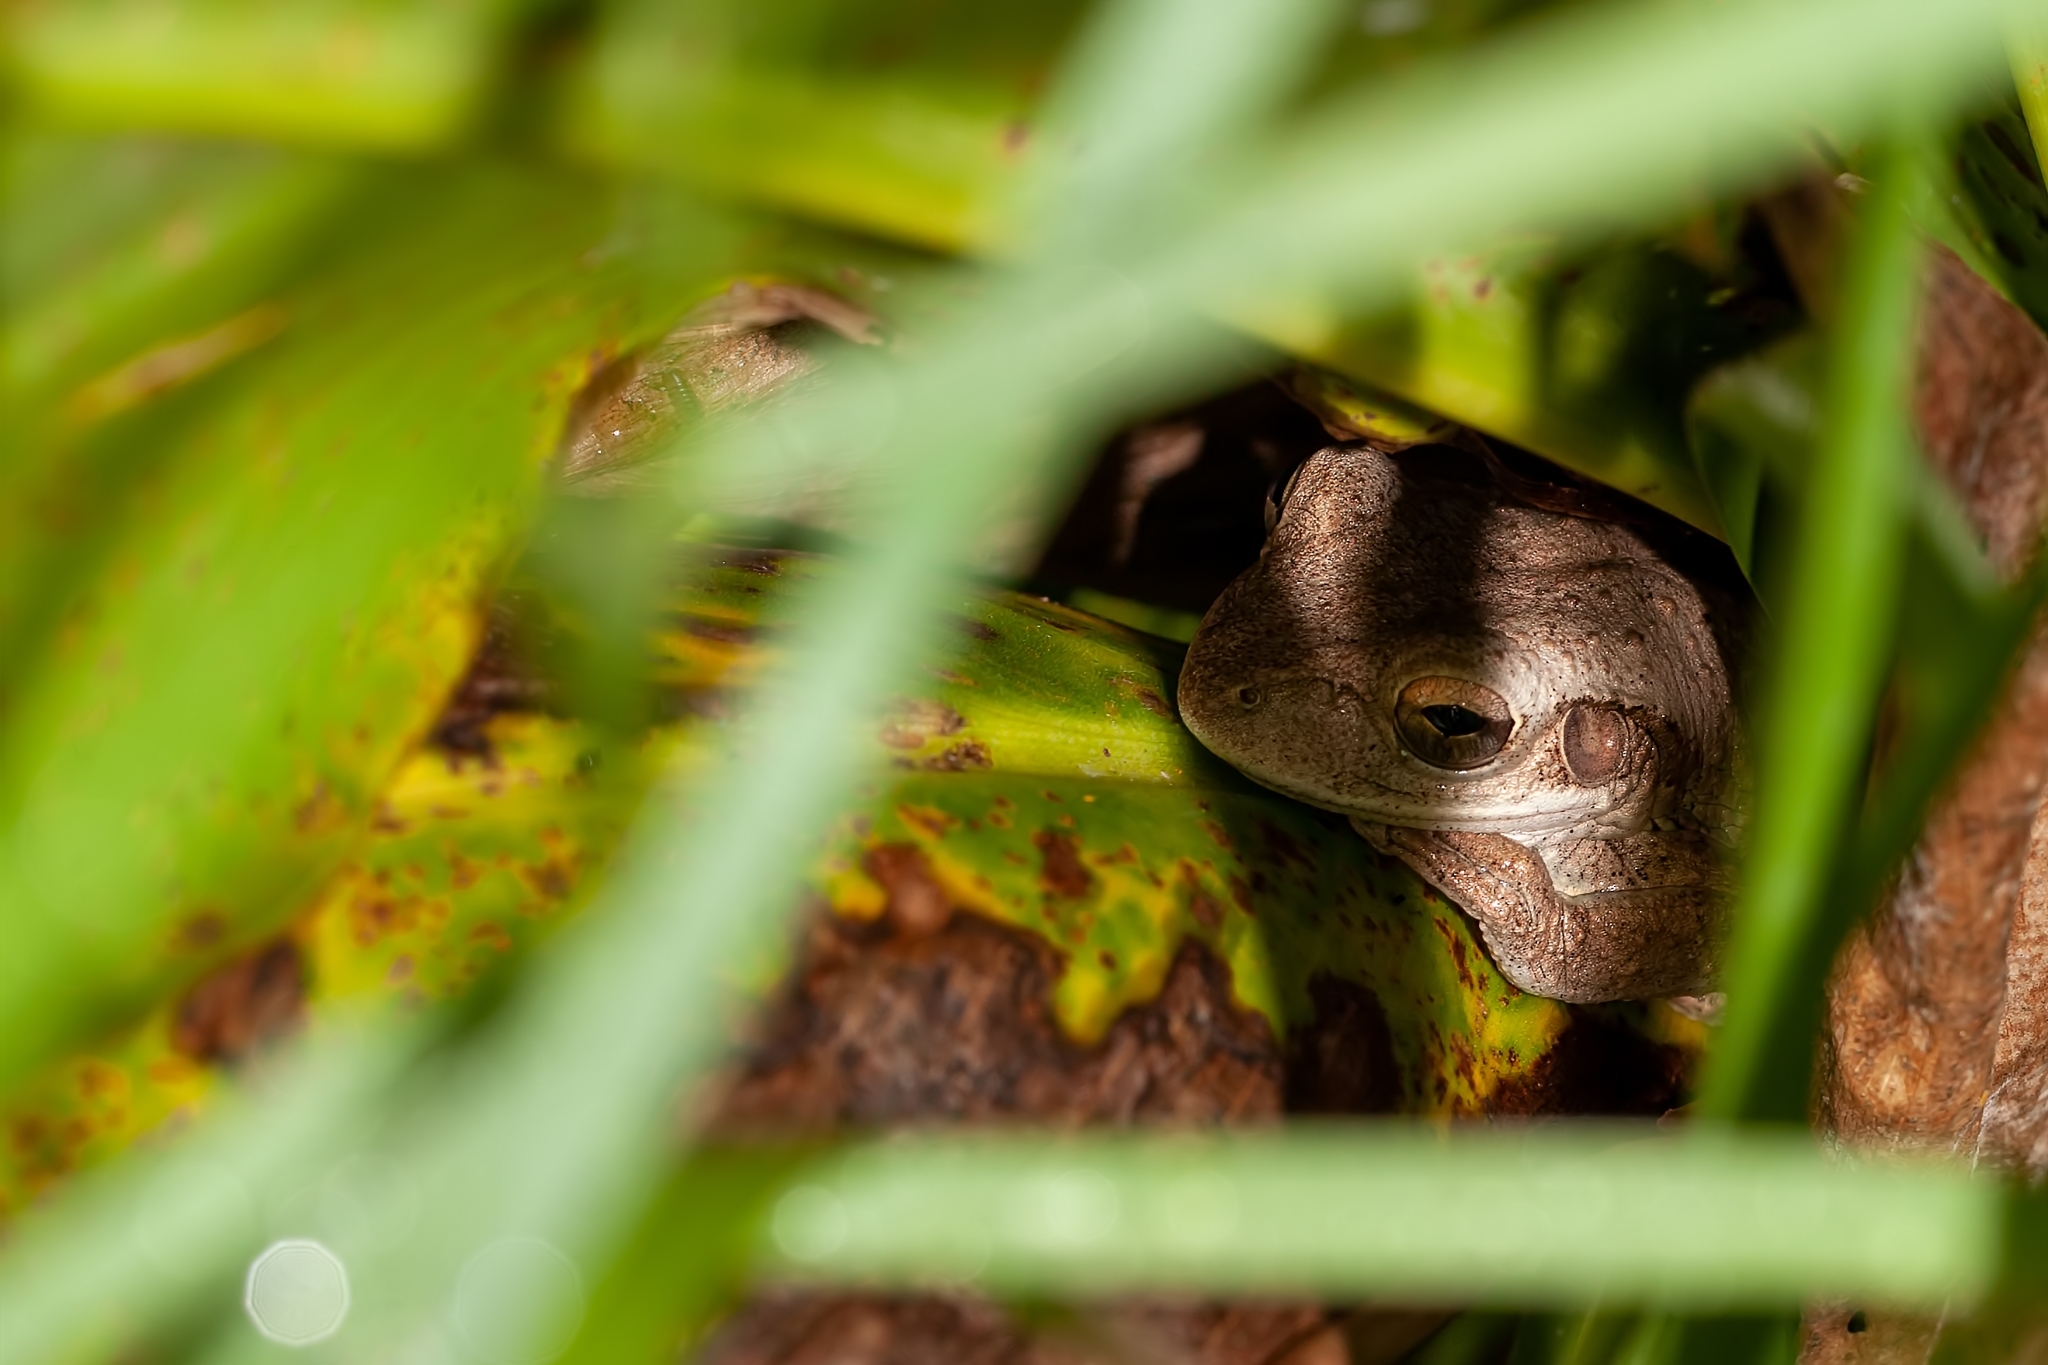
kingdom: Animalia
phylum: Chordata
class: Amphibia
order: Anura
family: Hylidae
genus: Osteopilus
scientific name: Osteopilus septentrionalis
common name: Cuban treefrog
